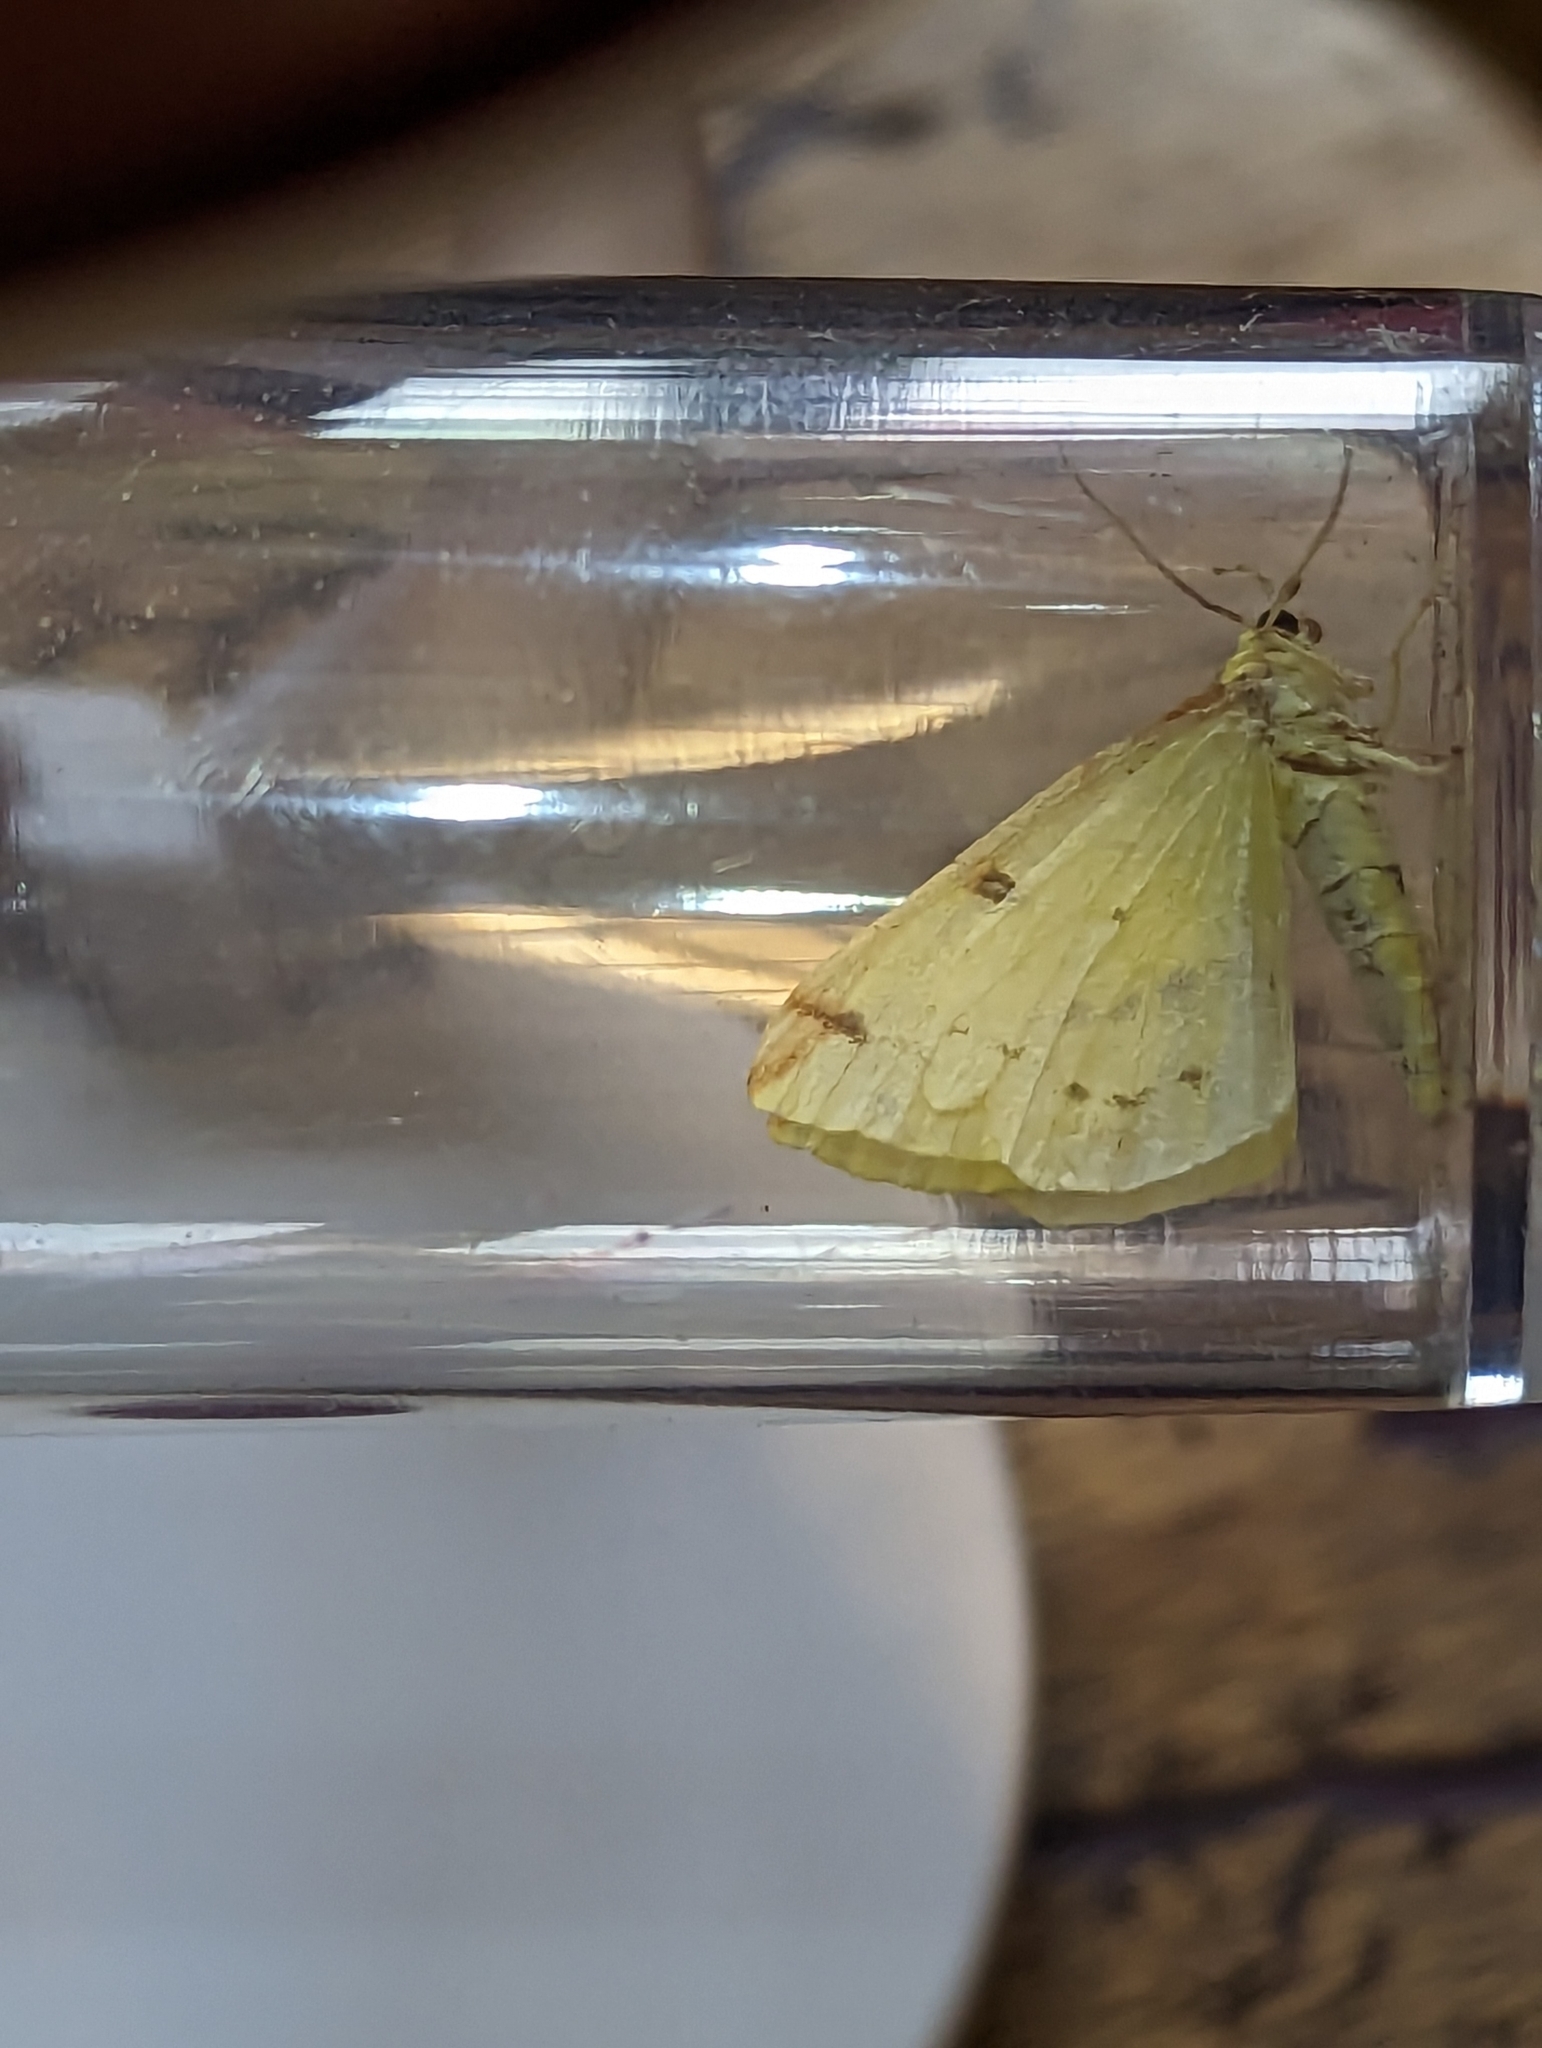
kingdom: Animalia
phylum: Arthropoda
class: Insecta
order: Lepidoptera
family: Geometridae
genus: Opisthograptis
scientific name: Opisthograptis luteolata
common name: Brimstone moth
